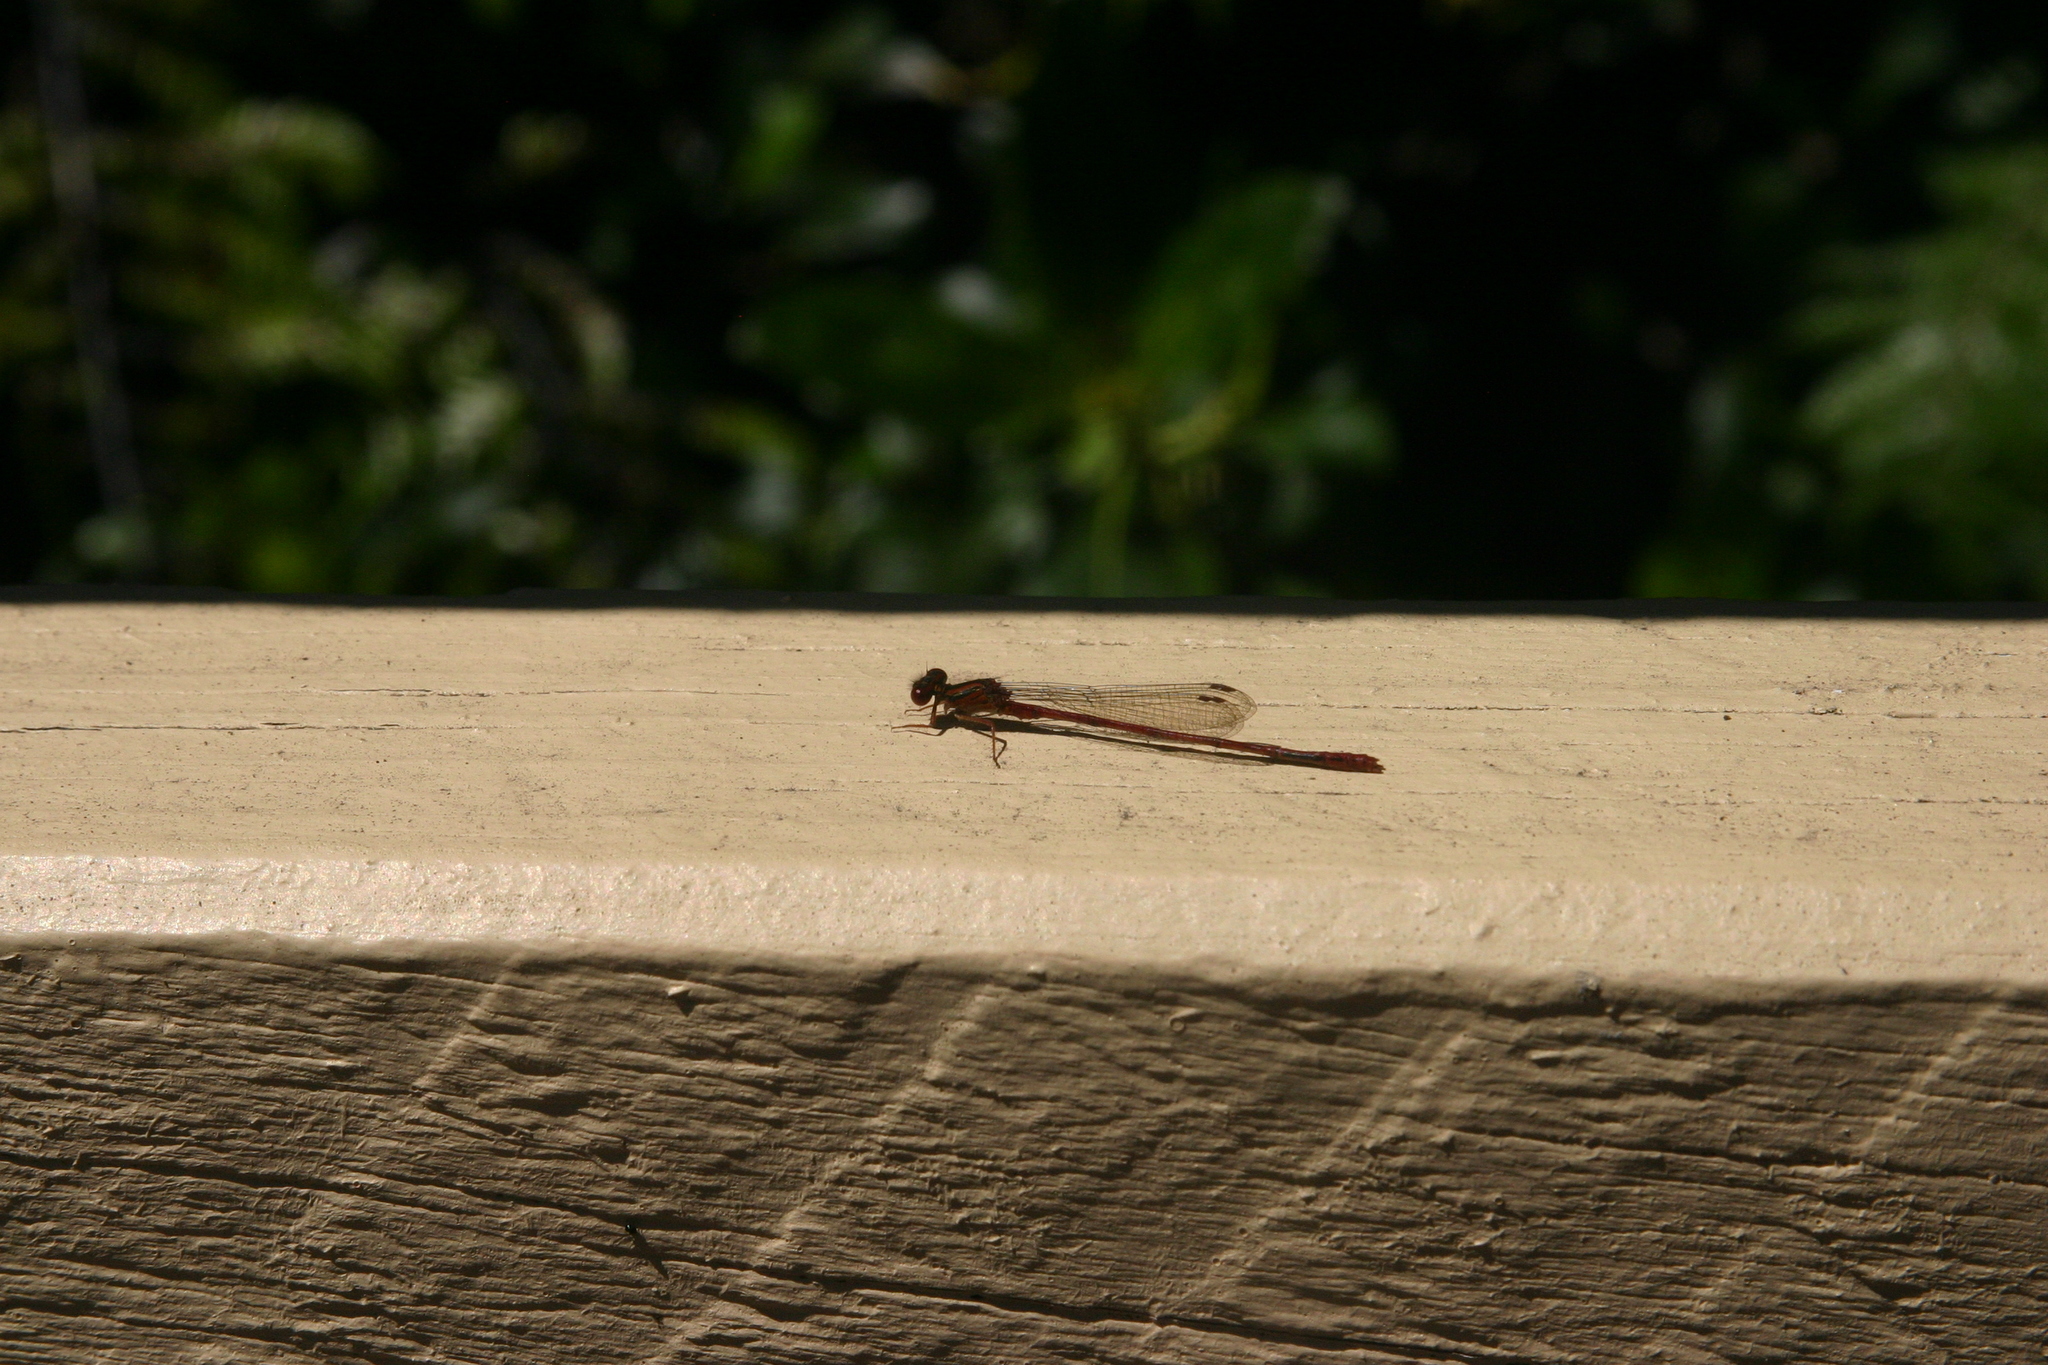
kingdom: Animalia
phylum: Arthropoda
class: Insecta
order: Odonata
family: Coenagrionidae
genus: Xanthocnemis
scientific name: Xanthocnemis zealandica
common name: Common redcoat damselfly
